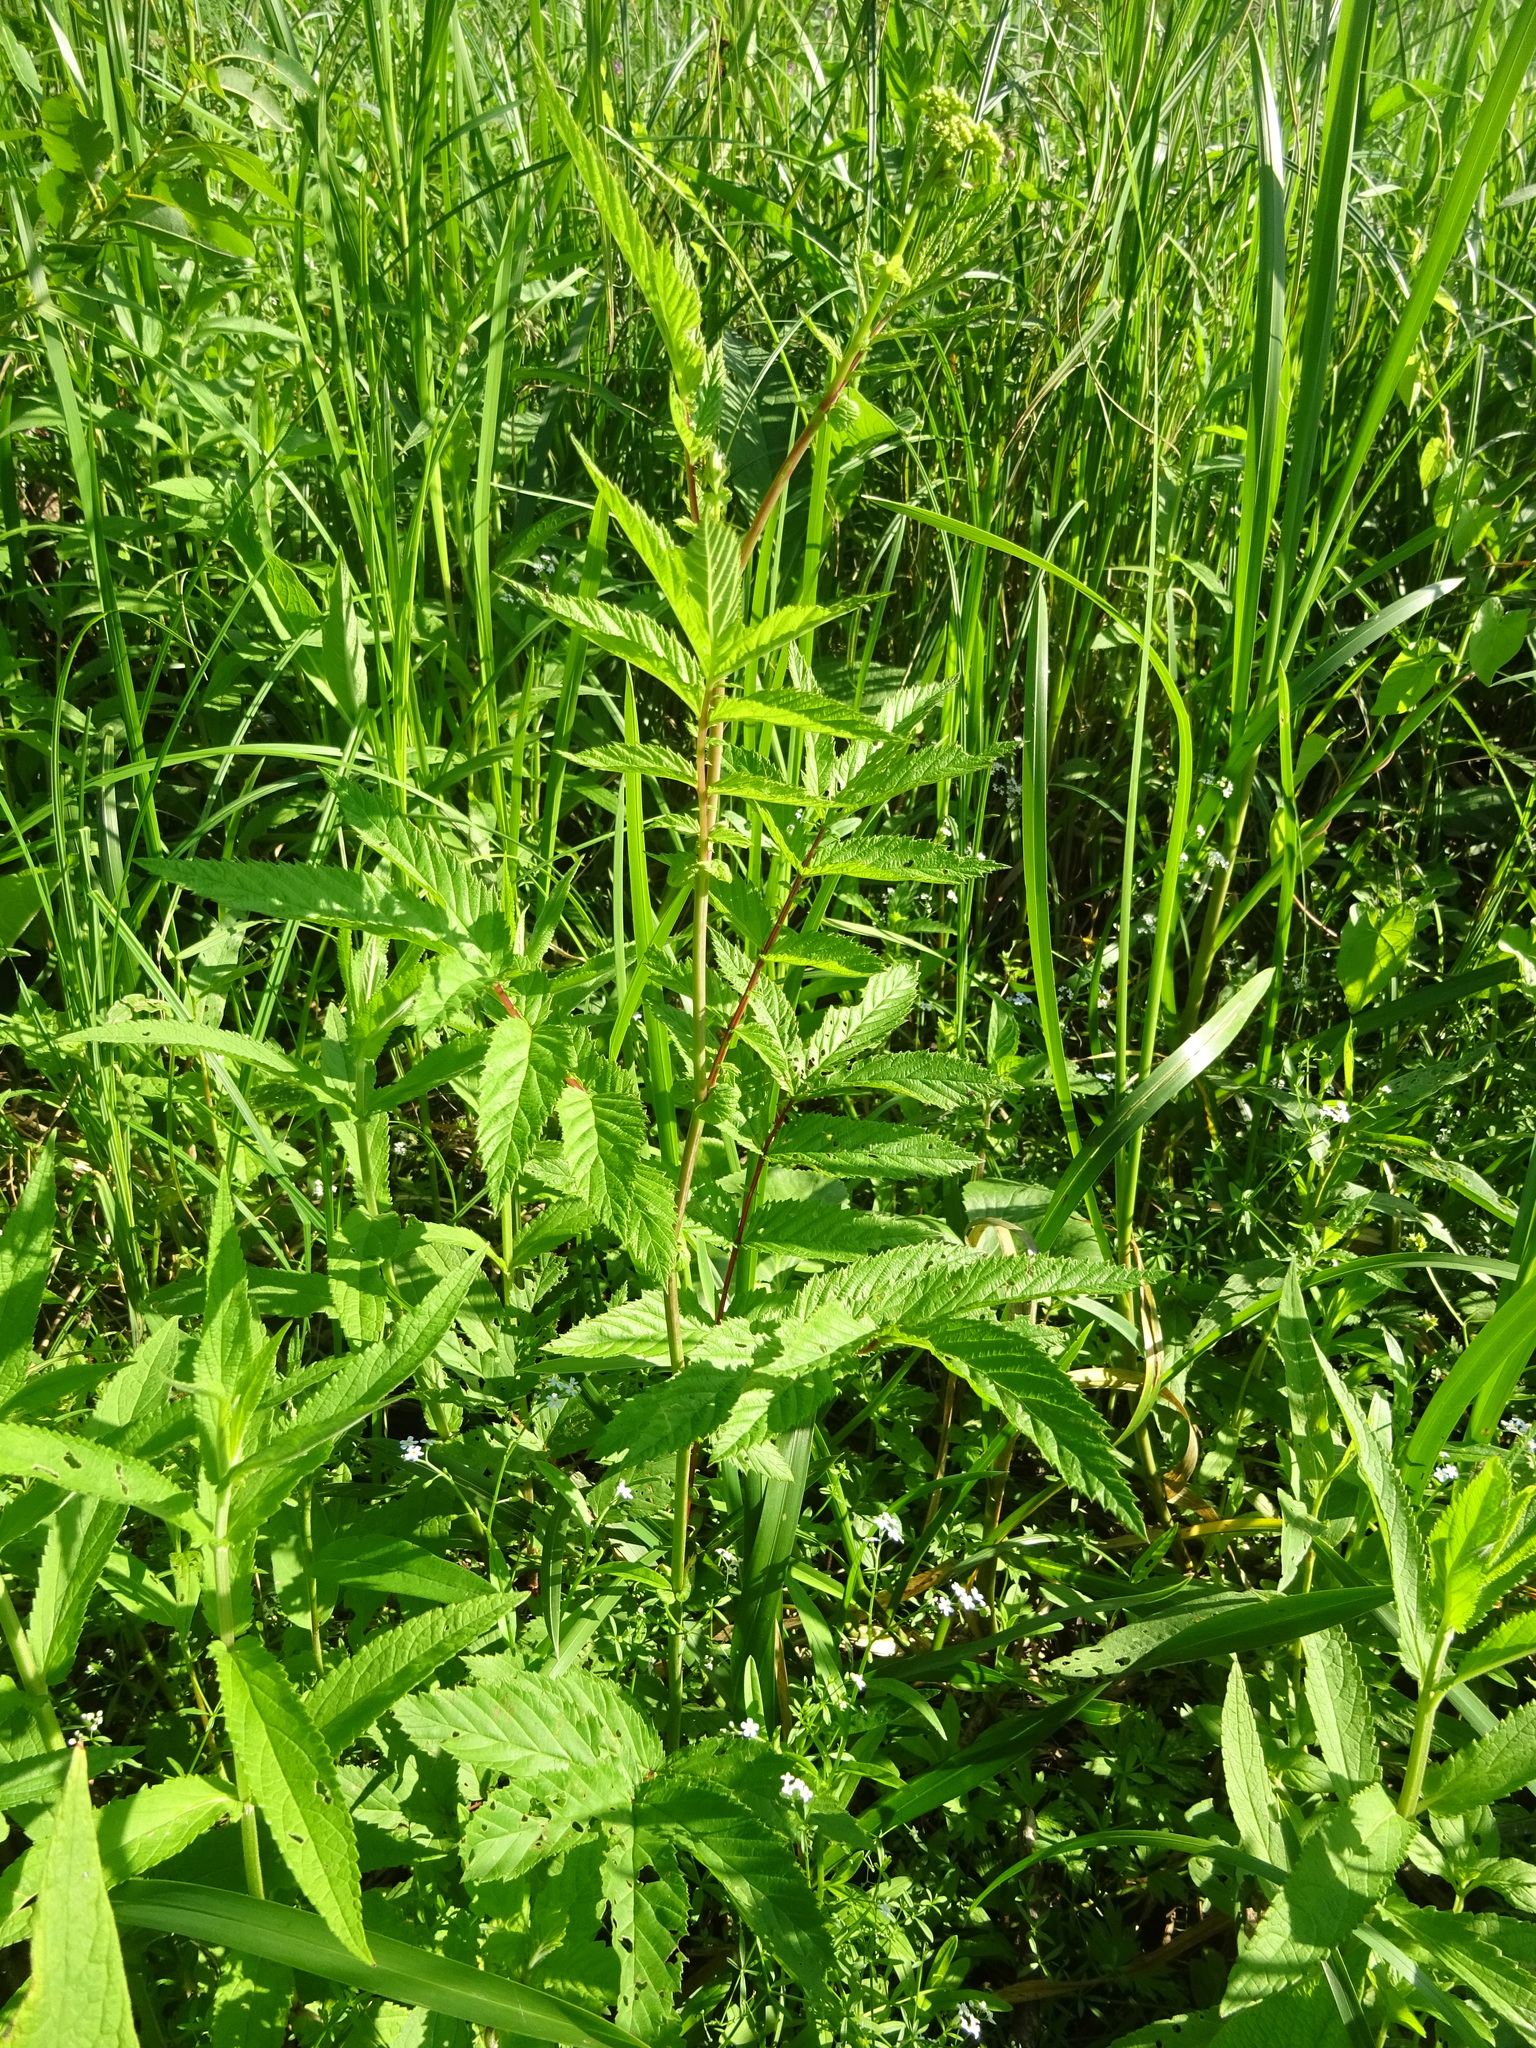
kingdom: Plantae
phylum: Tracheophyta
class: Magnoliopsida
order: Rosales
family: Rosaceae
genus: Filipendula
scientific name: Filipendula ulmaria
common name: Meadowsweet
